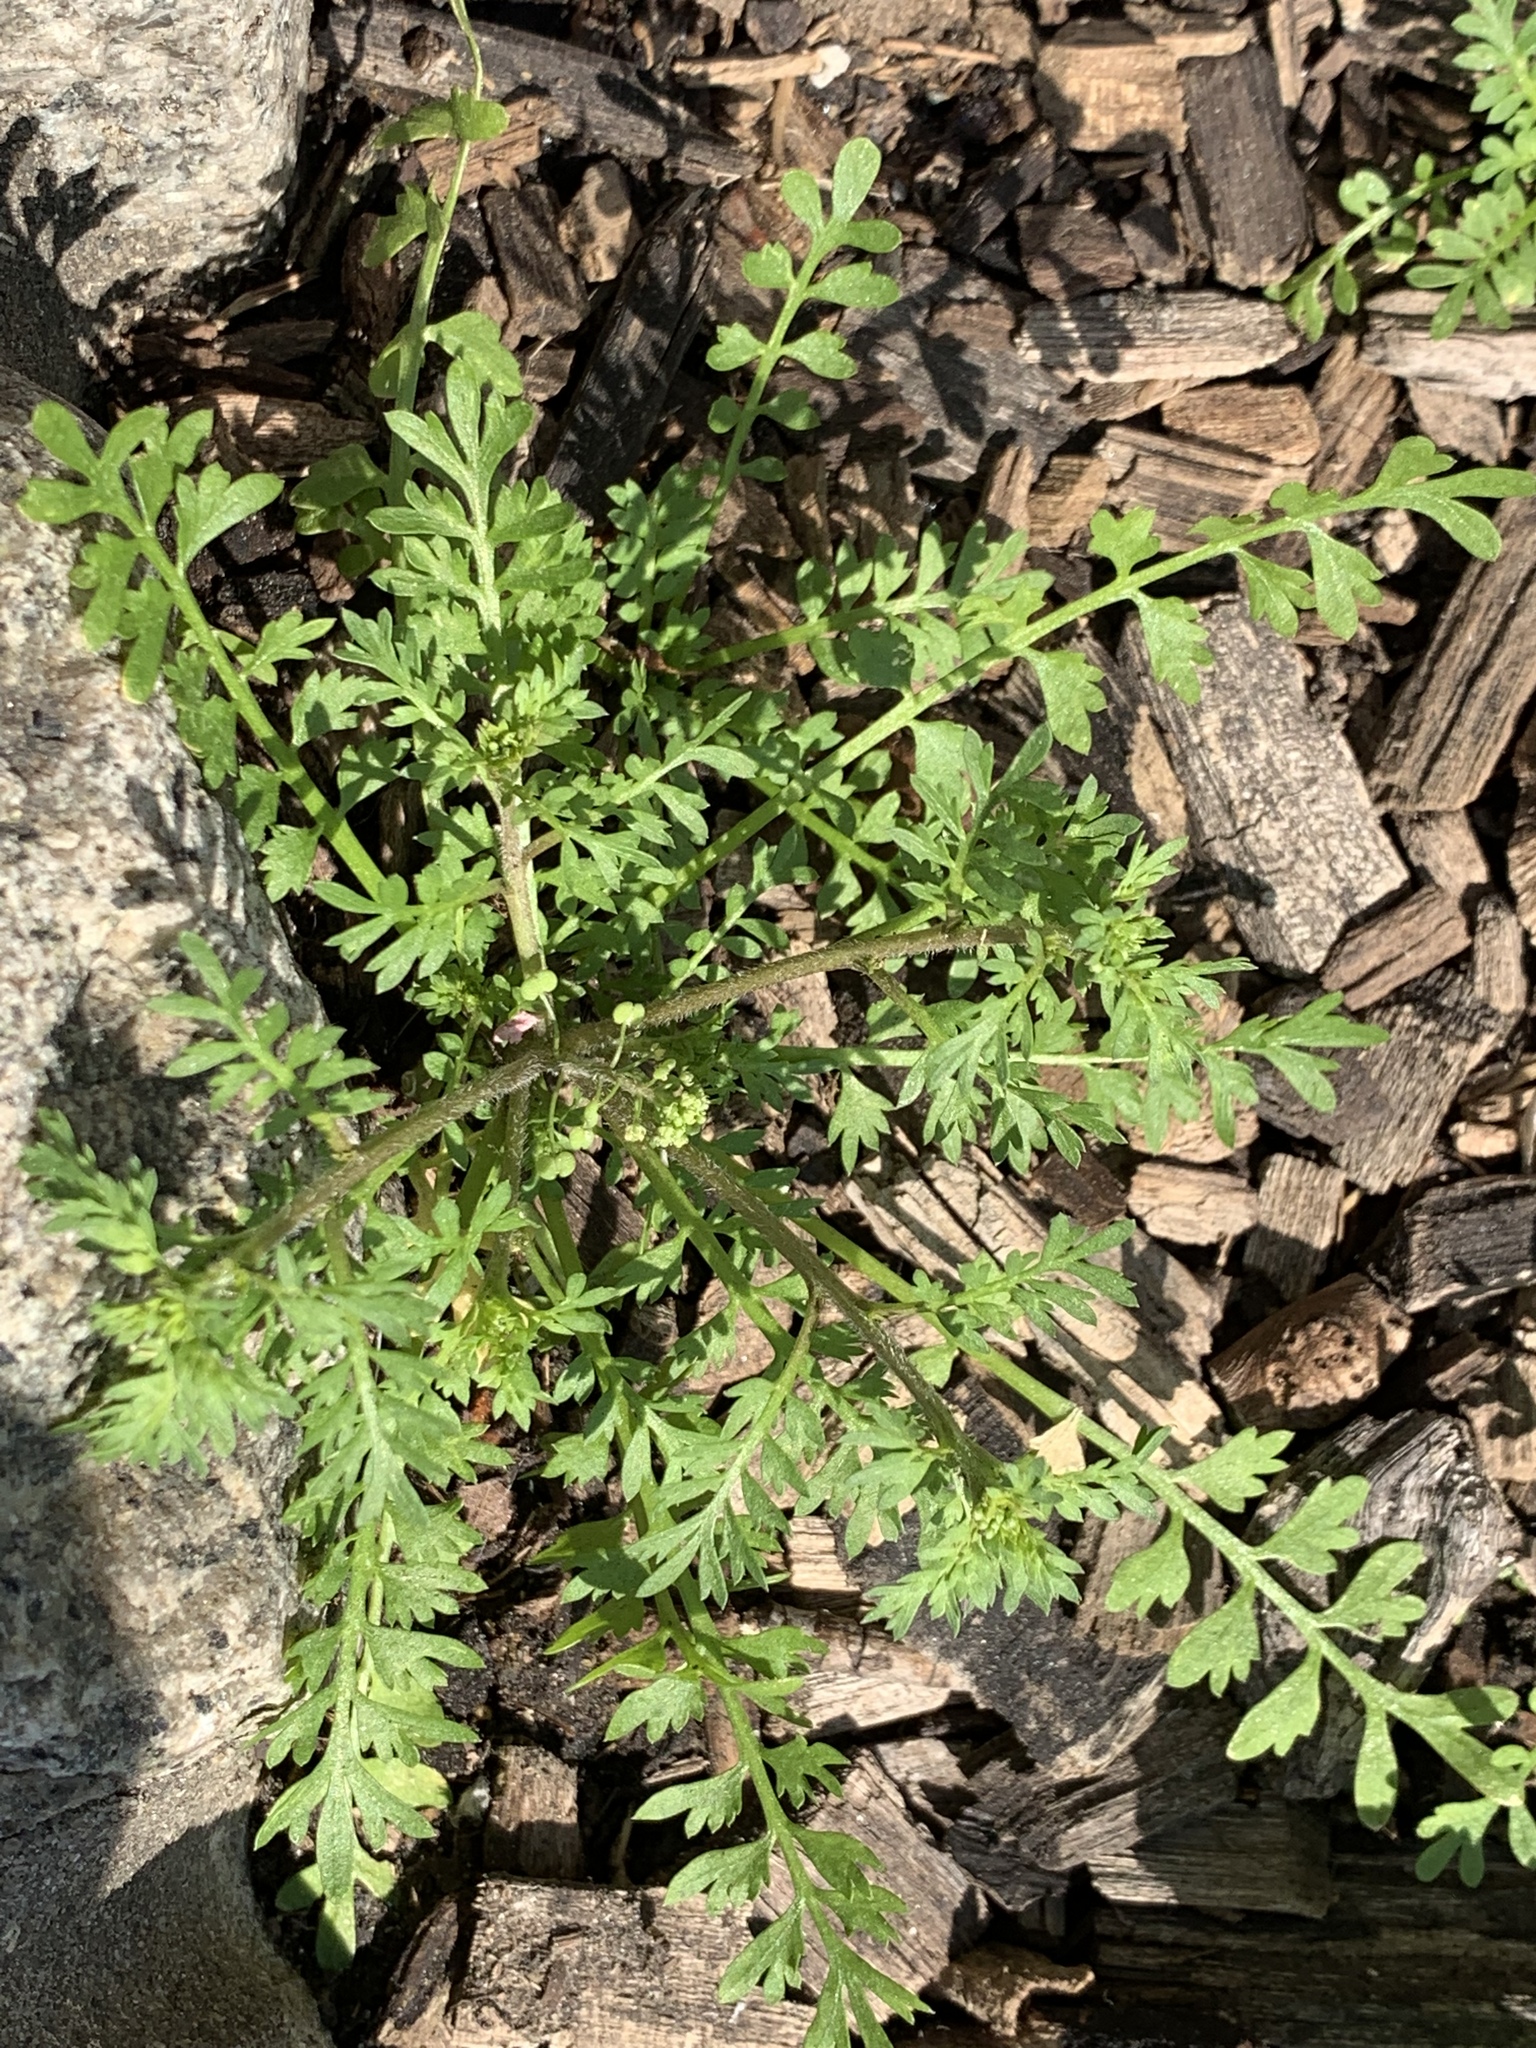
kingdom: Plantae
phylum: Tracheophyta
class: Magnoliopsida
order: Brassicales
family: Brassicaceae
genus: Lepidium
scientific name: Lepidium didymum
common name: Lesser swinecress
